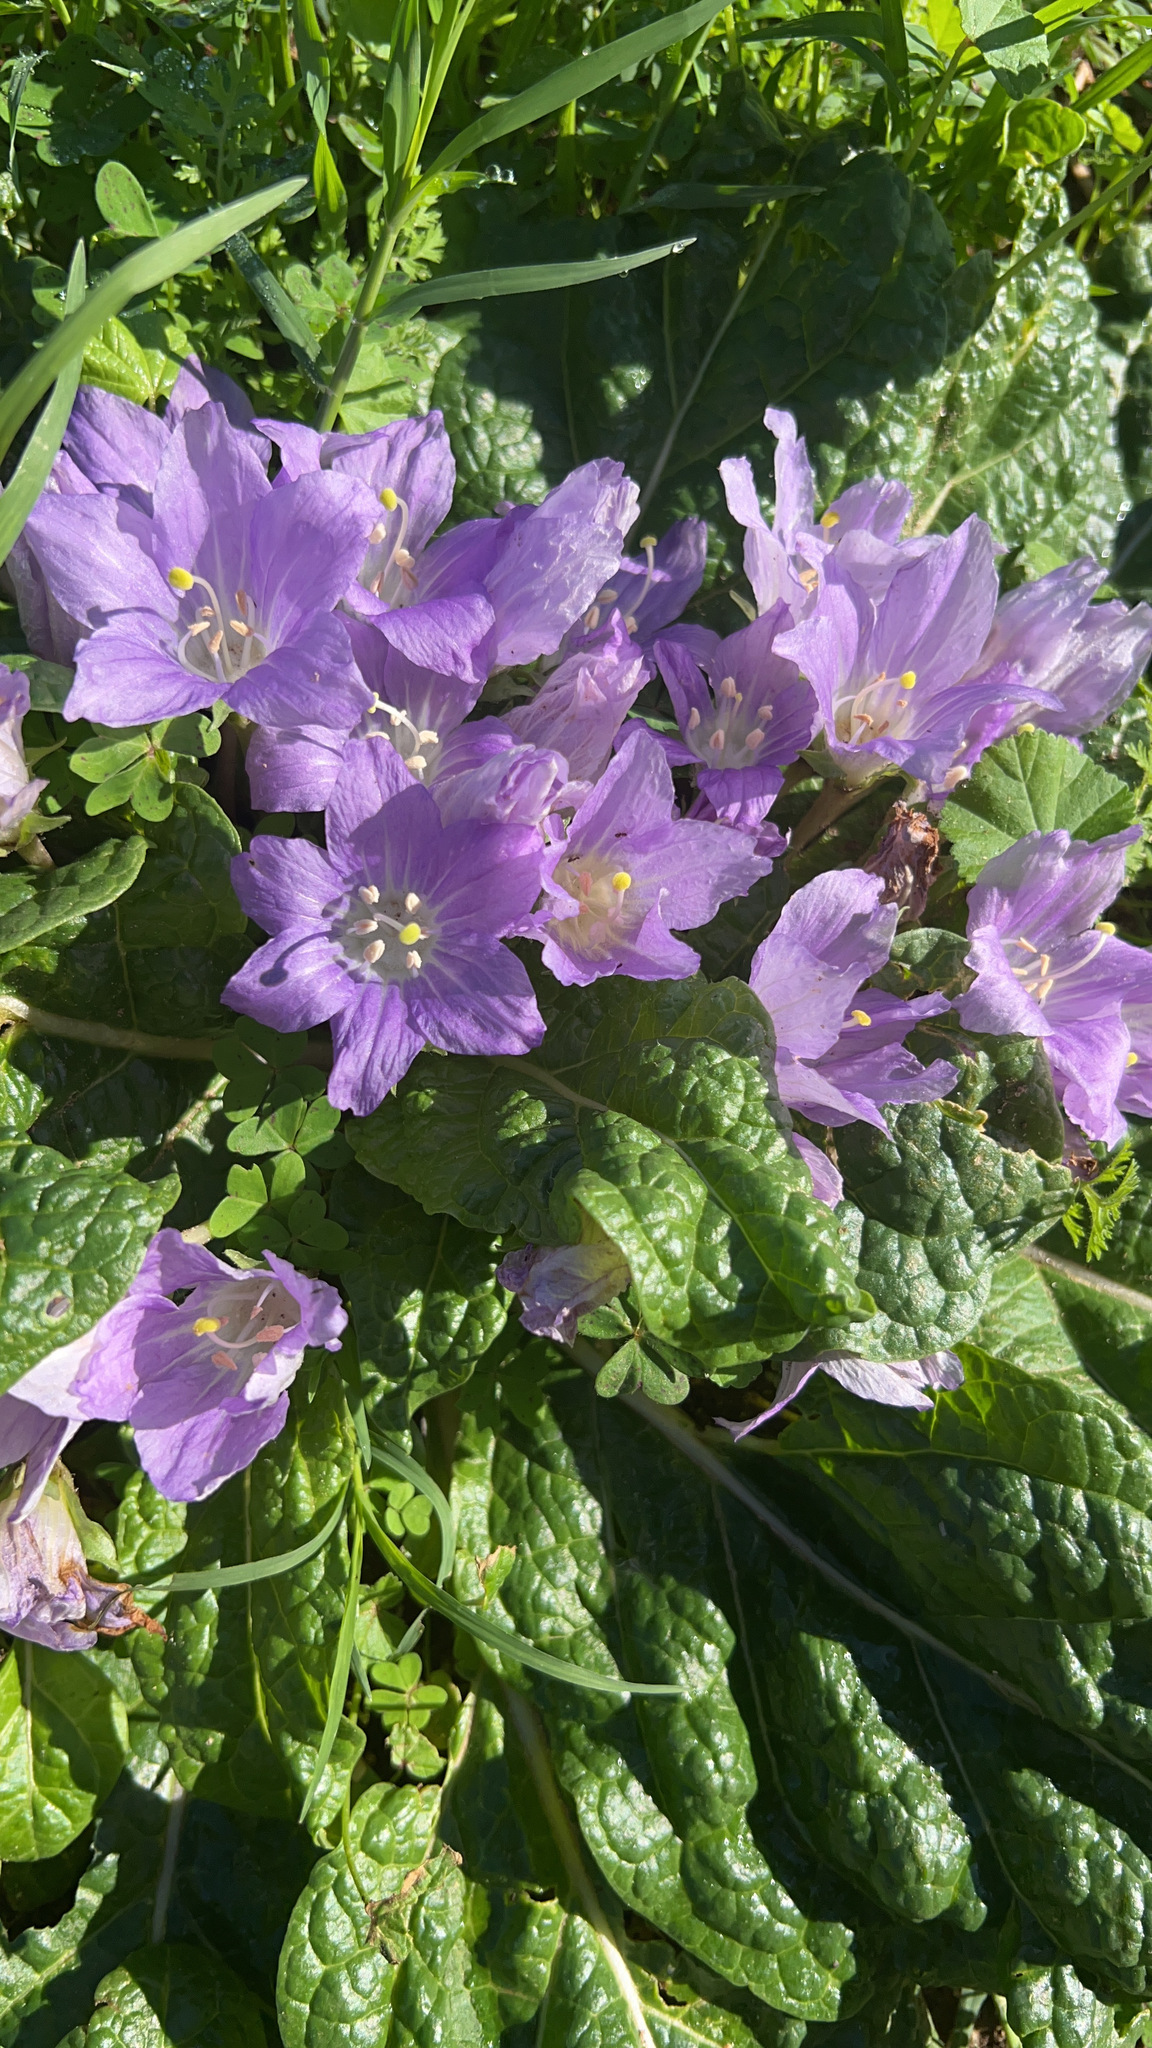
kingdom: Plantae
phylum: Tracheophyta
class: Magnoliopsida
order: Solanales
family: Solanaceae
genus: Mandragora
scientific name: Mandragora officinarum
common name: Mandrake
